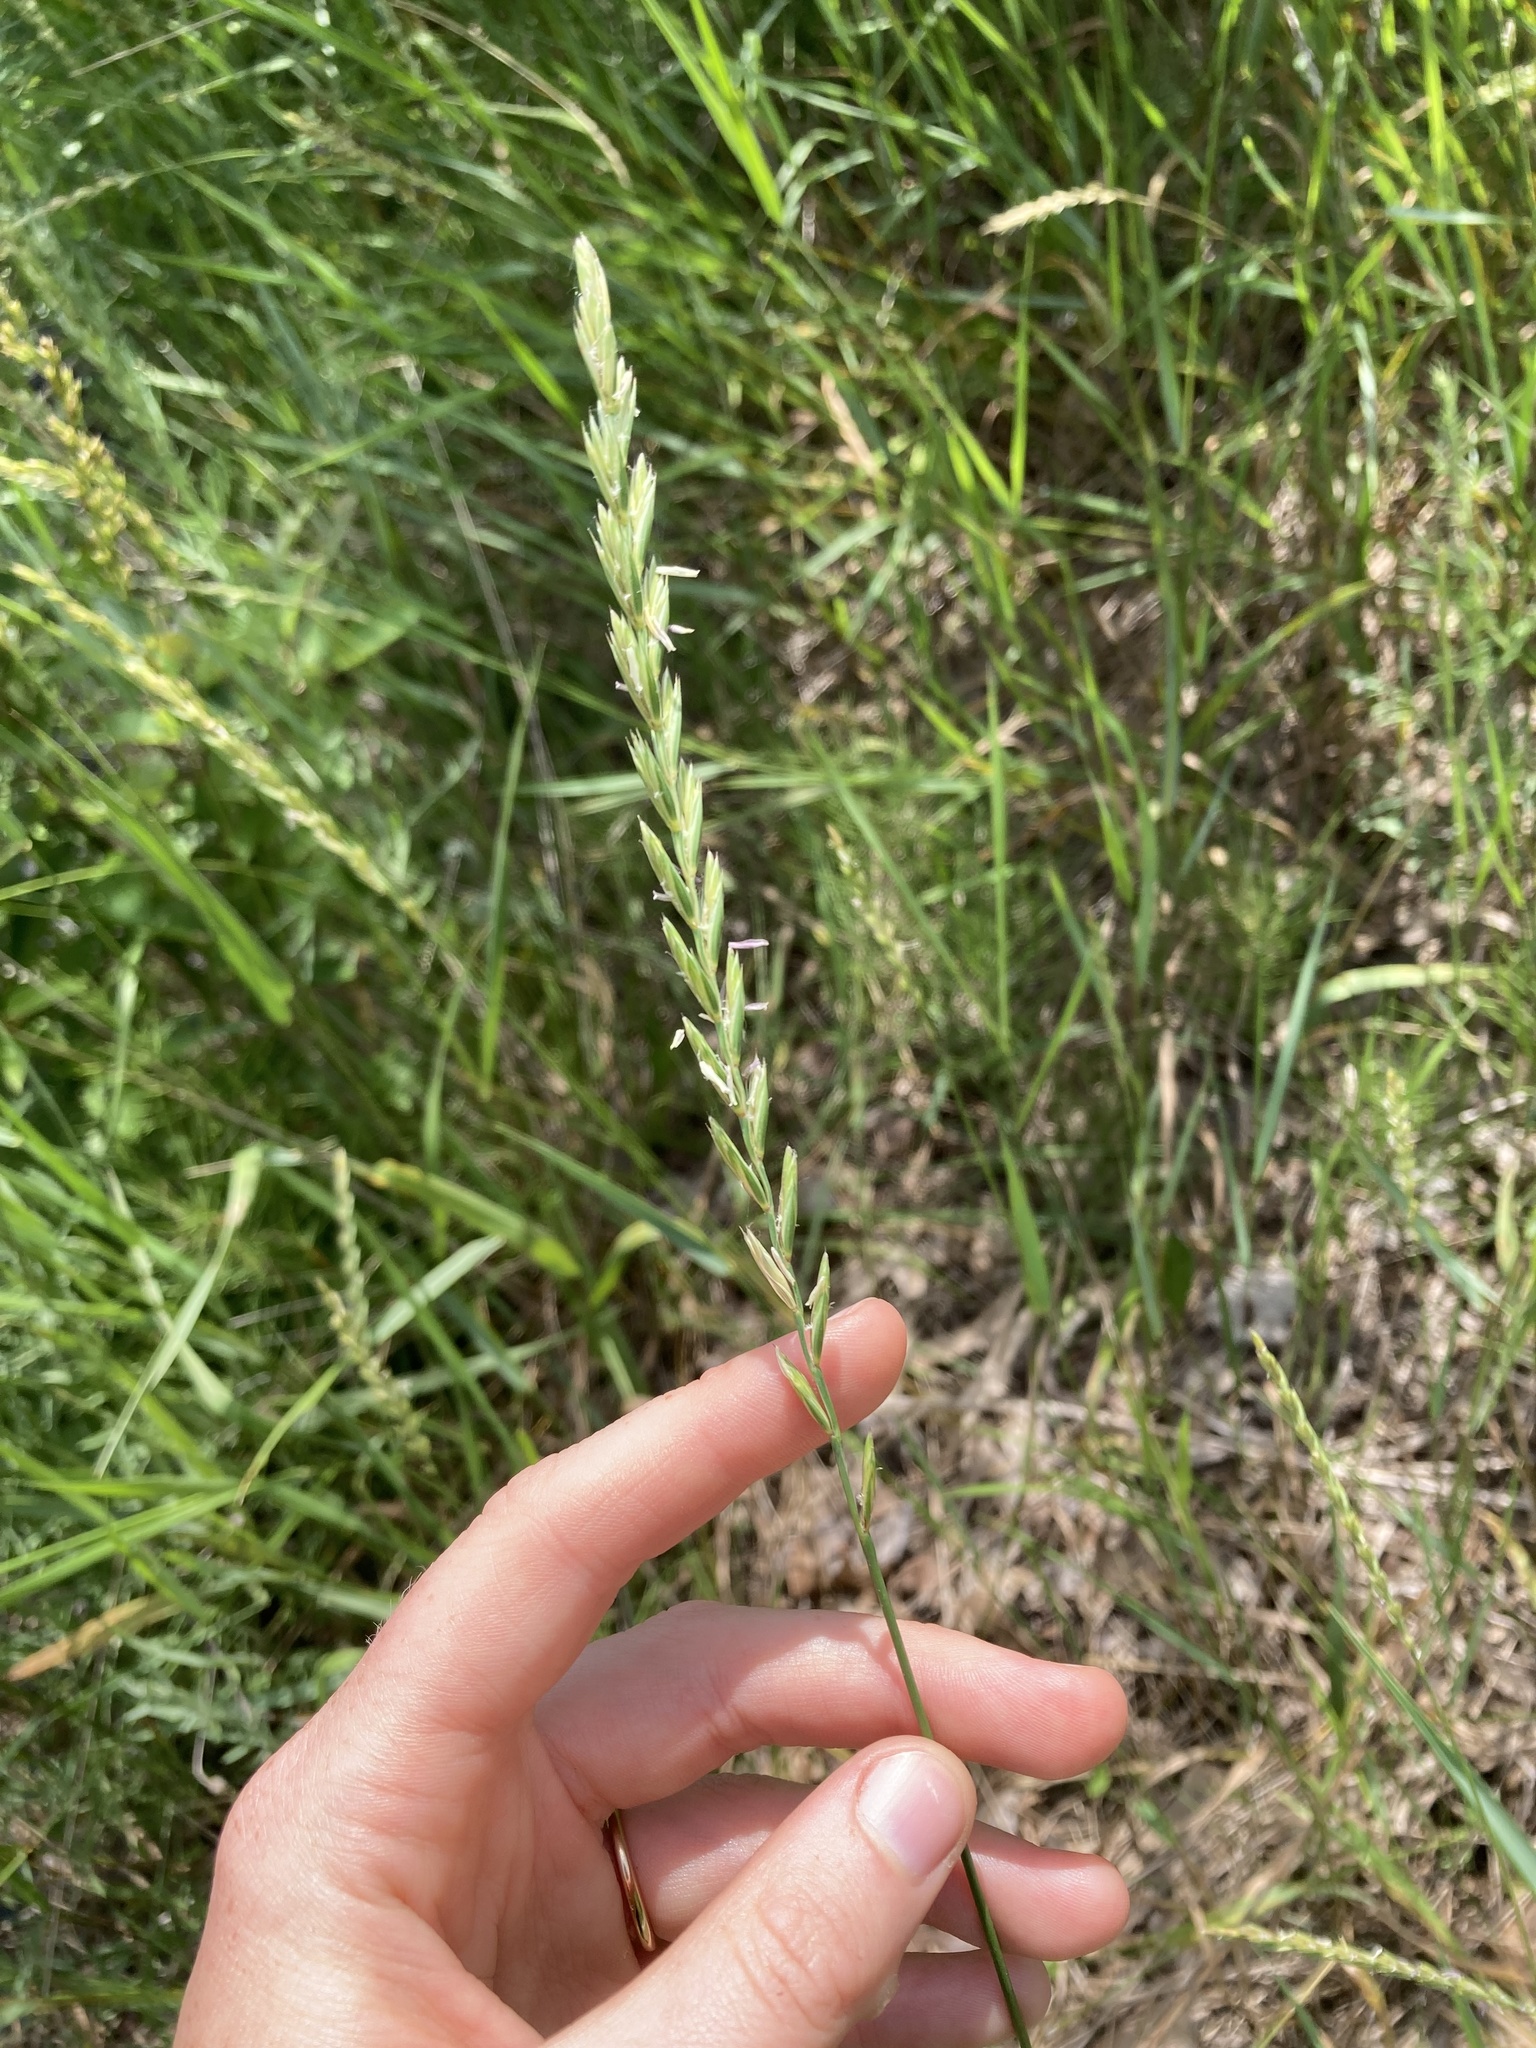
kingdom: Plantae
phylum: Tracheophyta
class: Liliopsida
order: Poales
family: Poaceae
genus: Elymus
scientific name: Elymus repens
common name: Quackgrass
